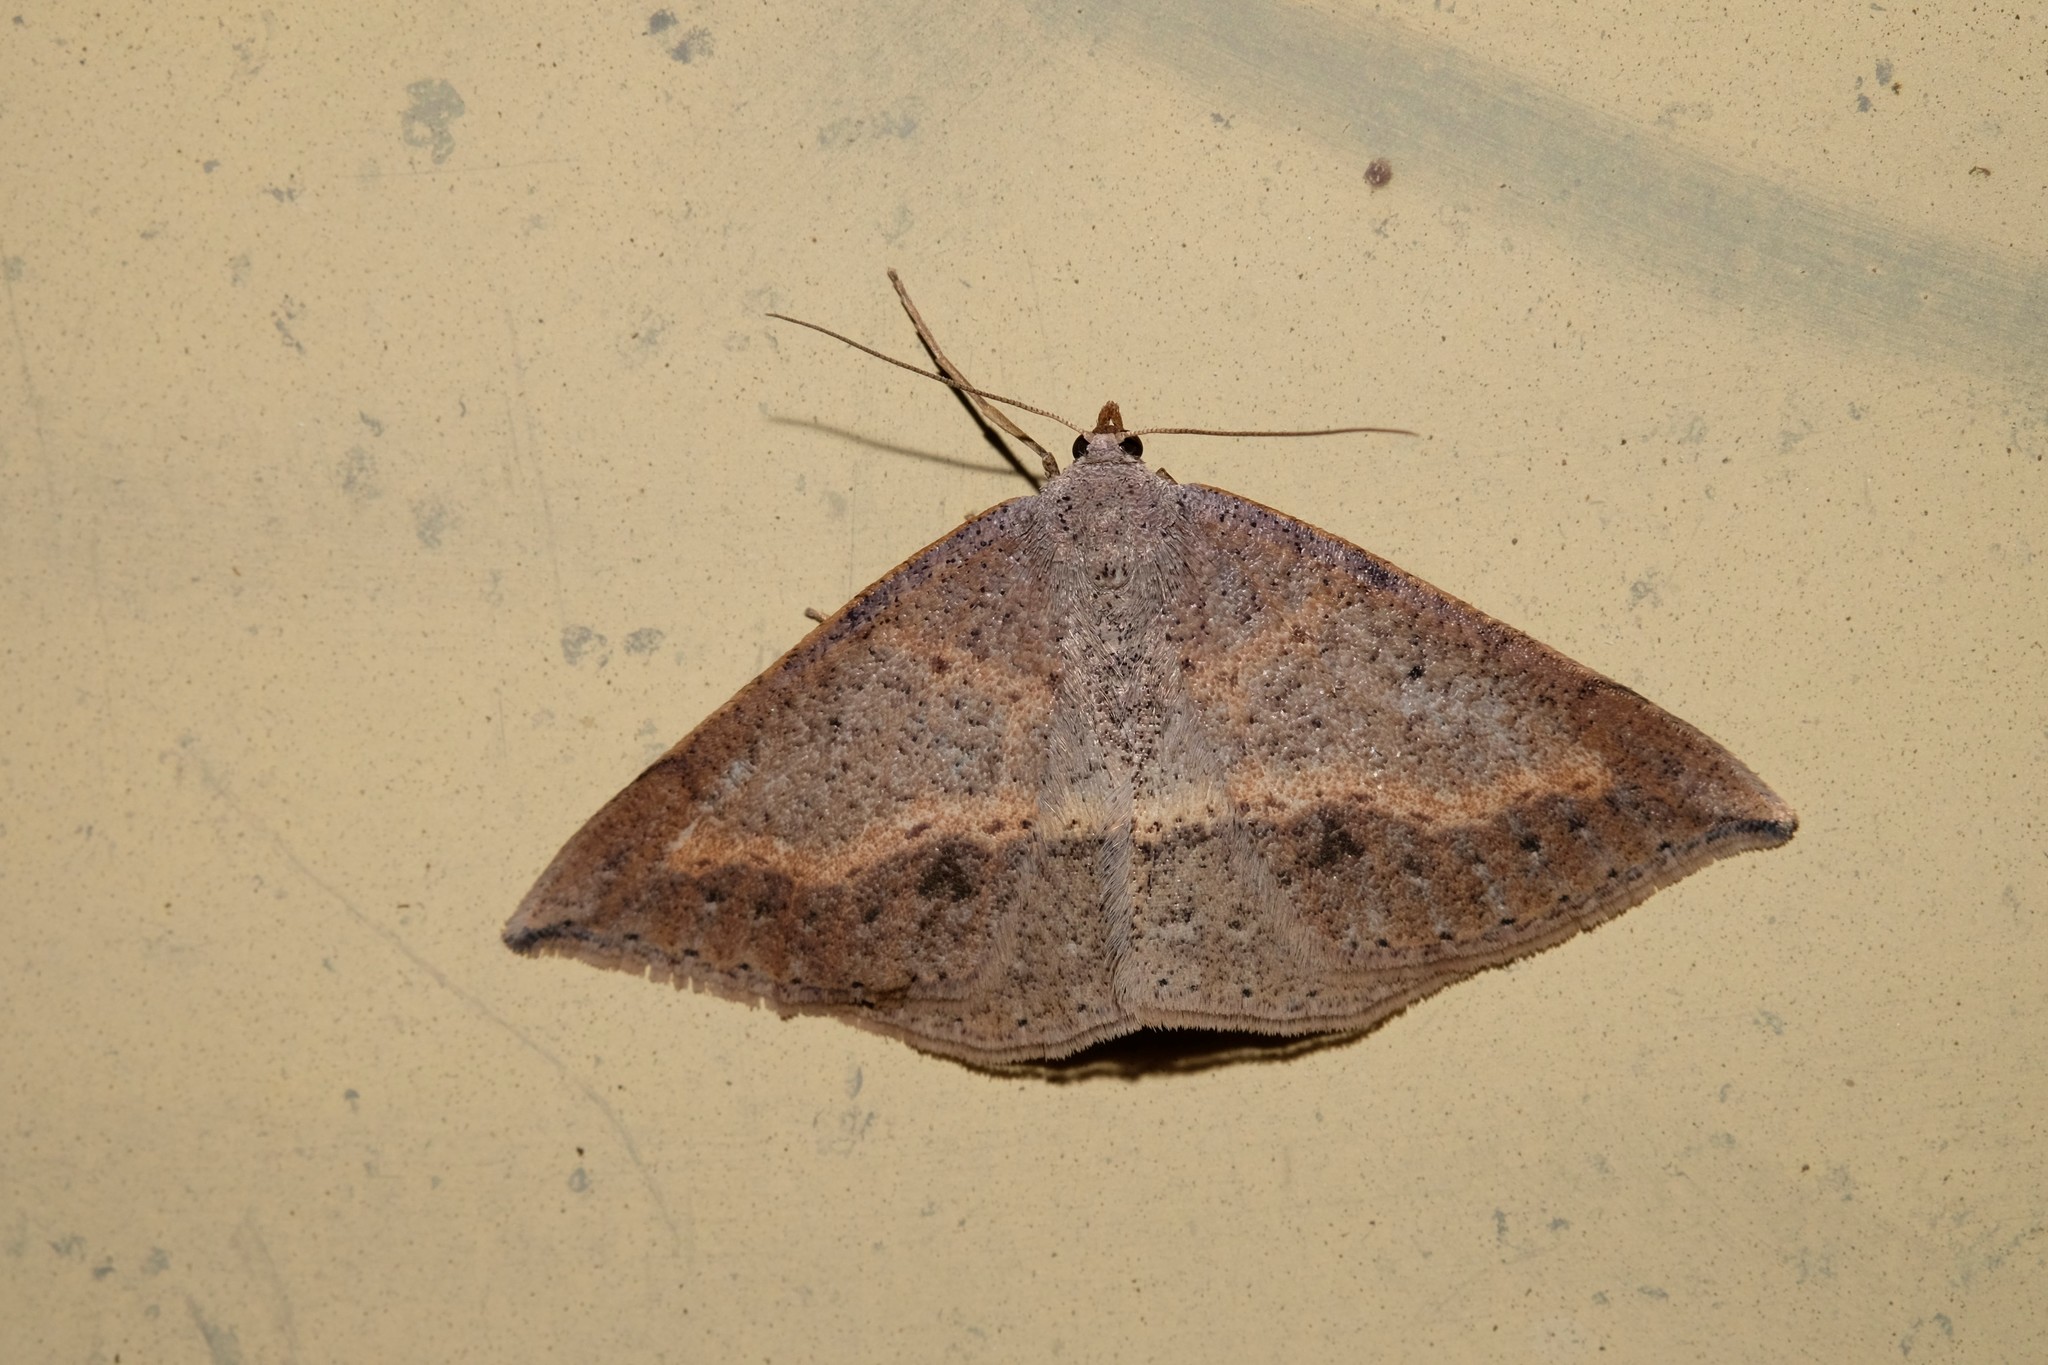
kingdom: Animalia
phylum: Arthropoda
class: Insecta
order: Lepidoptera
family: Geometridae
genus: Taxeotis
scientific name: Taxeotis perlinearia
